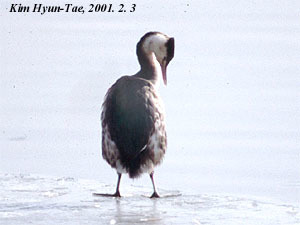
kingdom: Animalia
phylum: Chordata
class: Aves
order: Podicipediformes
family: Podicipedidae
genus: Podiceps
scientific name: Podiceps cristatus
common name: Great crested grebe
